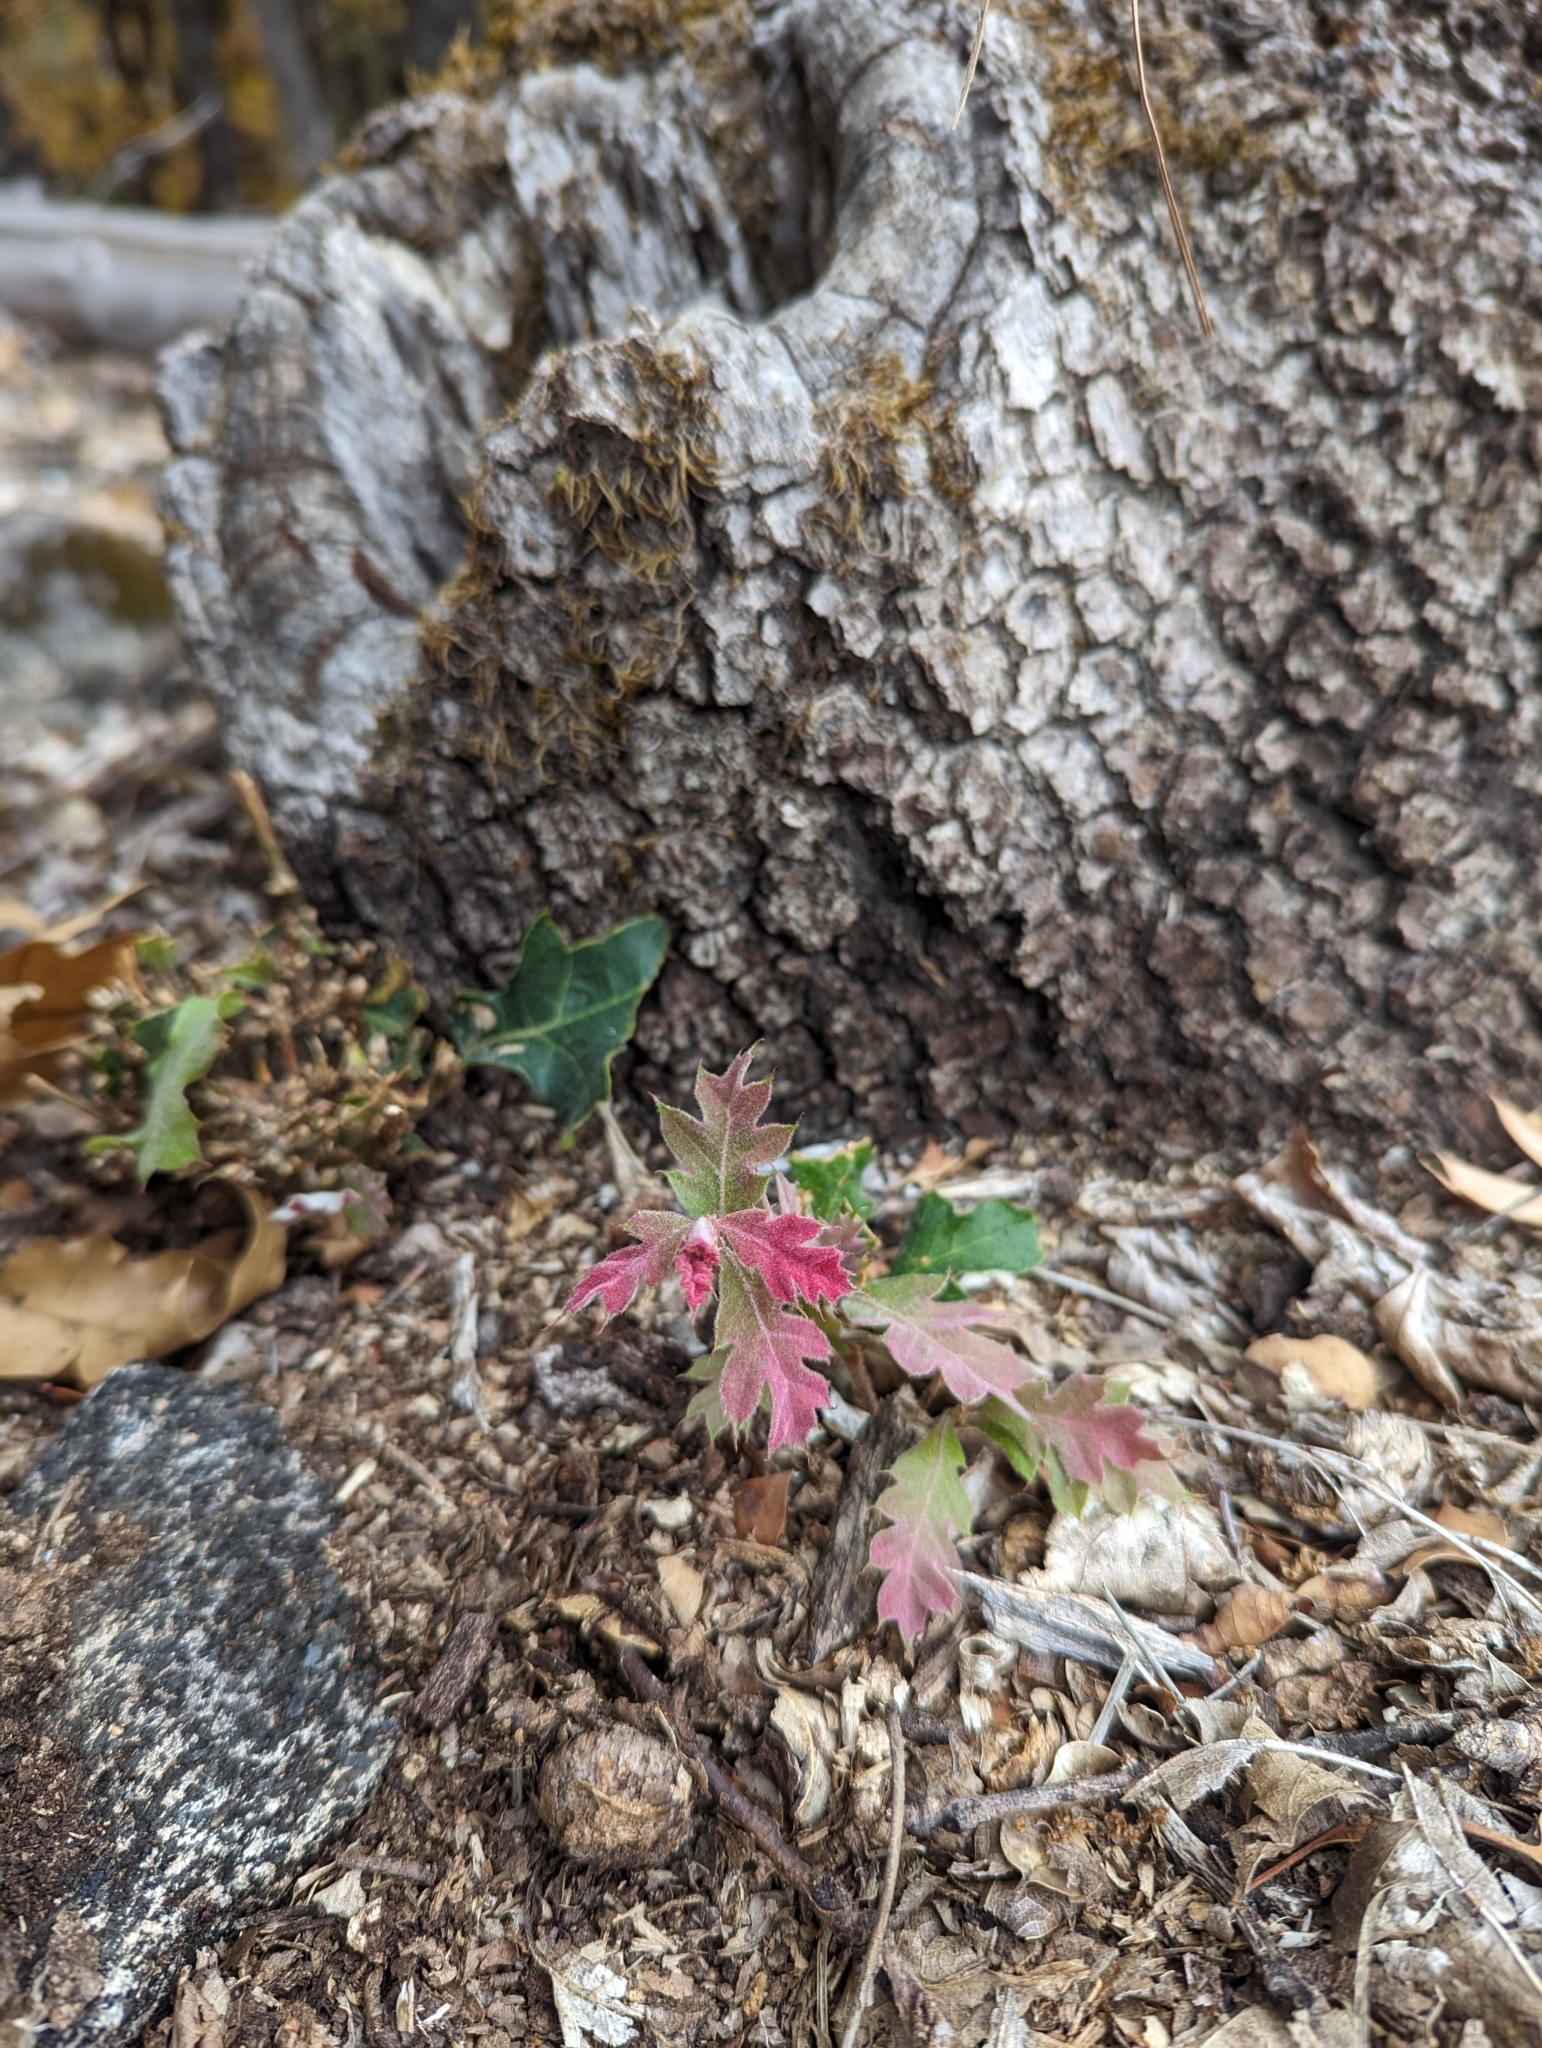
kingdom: Plantae
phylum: Tracheophyta
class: Magnoliopsida
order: Fagales
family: Fagaceae
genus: Quercus
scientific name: Quercus kelloggii
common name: California black oak
